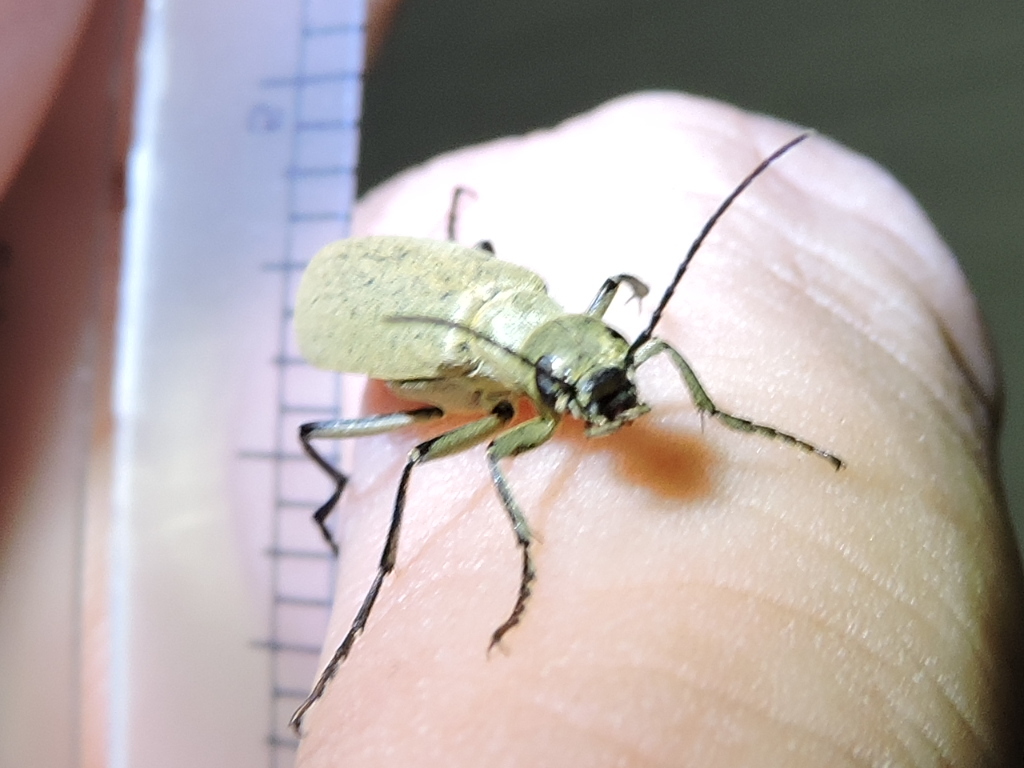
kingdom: Animalia
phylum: Arthropoda
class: Insecta
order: Coleoptera
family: Meloidae
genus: Epicauta
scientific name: Epicauta immaculata
